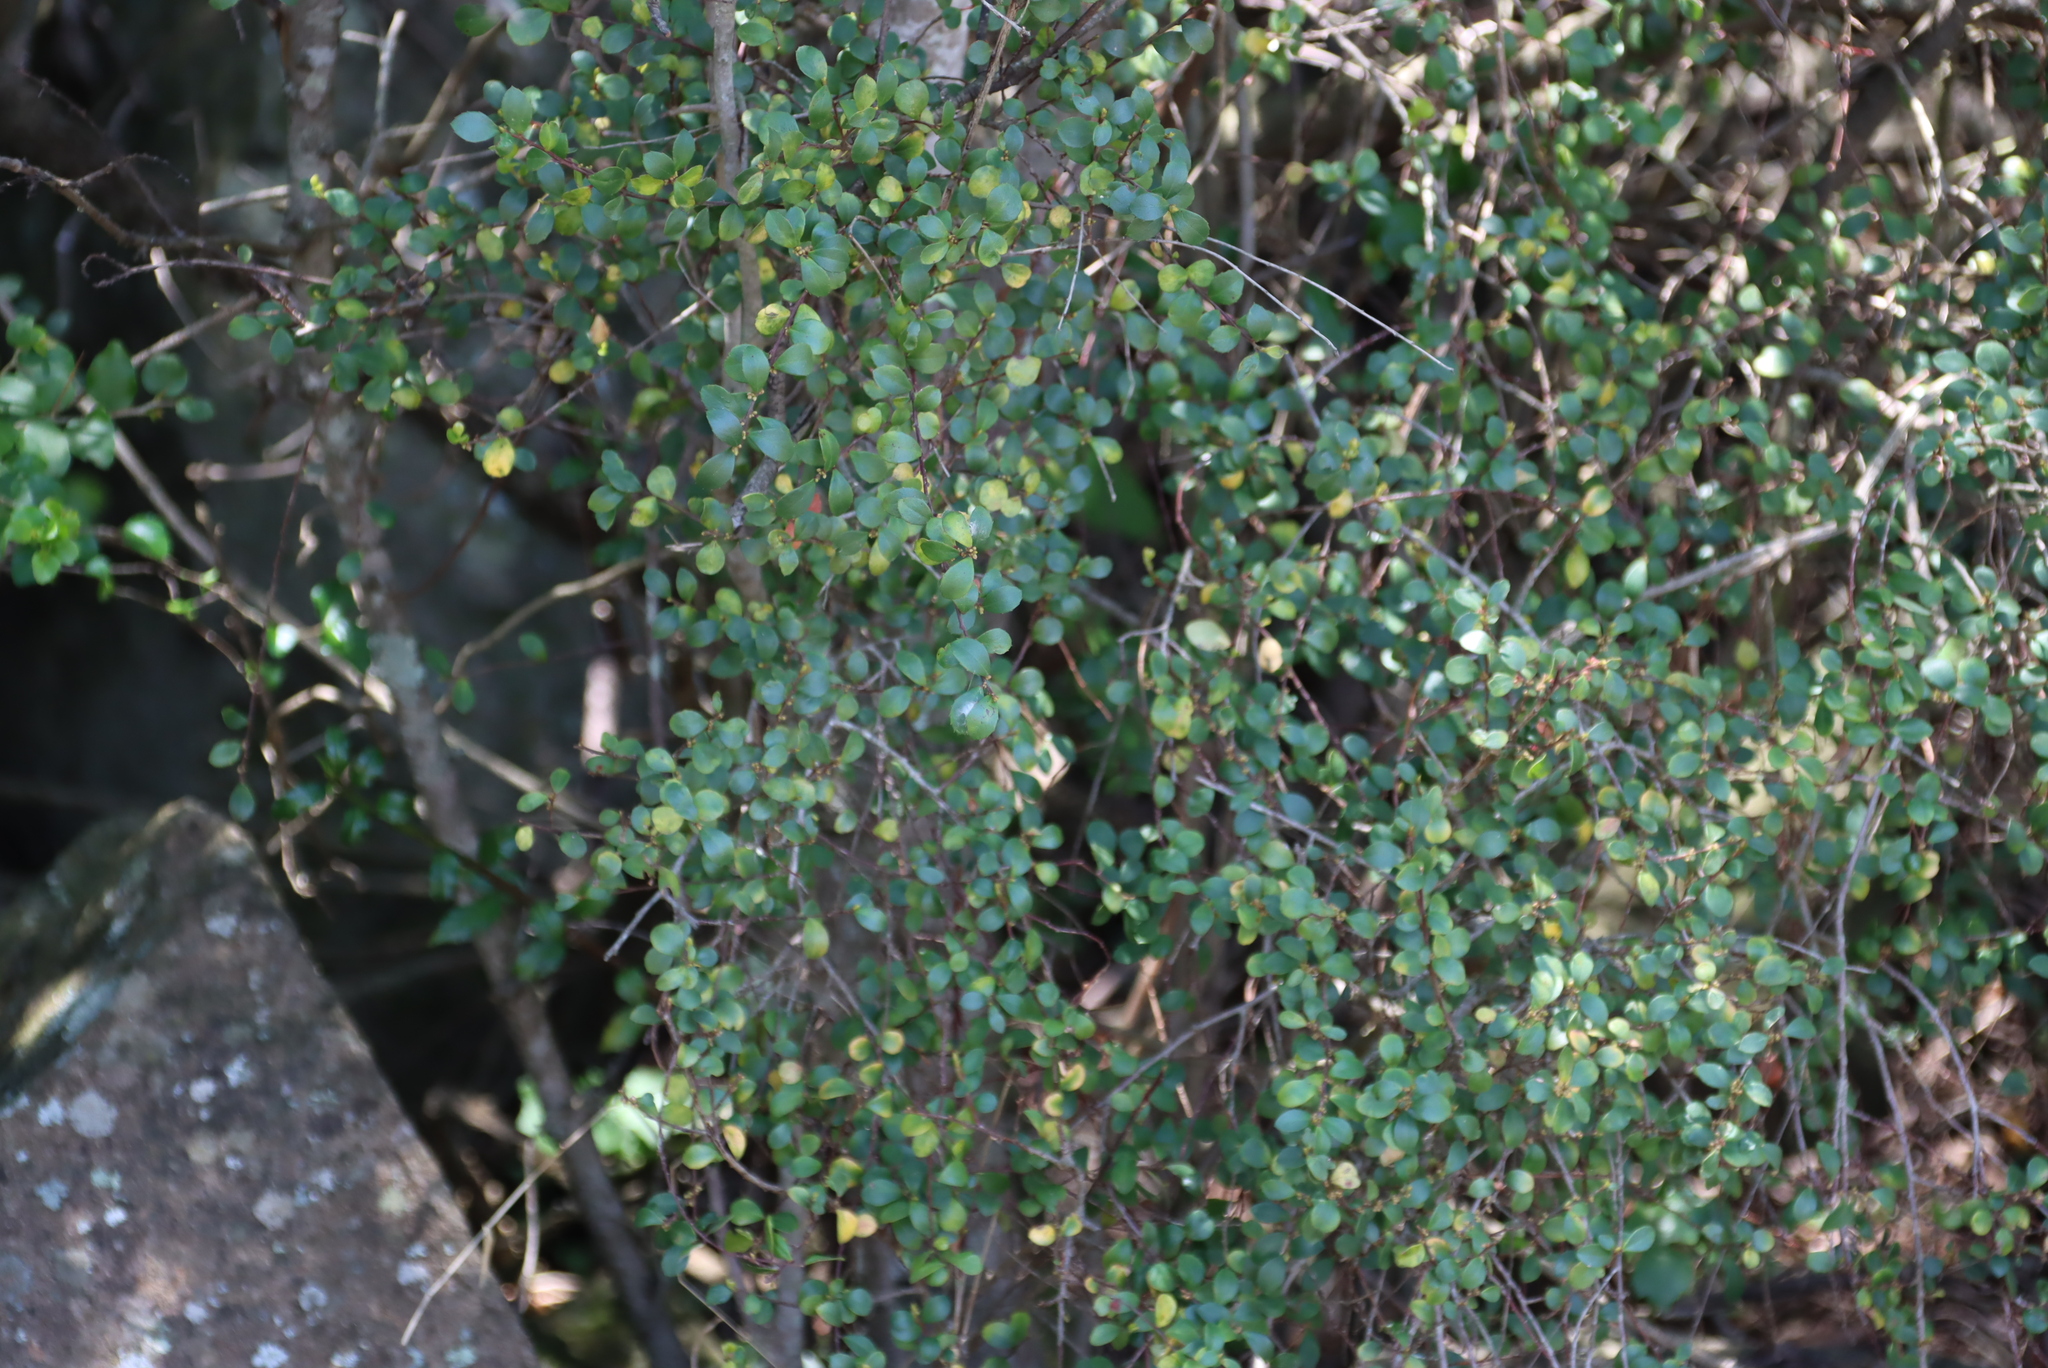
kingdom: Plantae
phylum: Tracheophyta
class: Magnoliopsida
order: Ericales
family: Primulaceae
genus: Myrsine
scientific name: Myrsine africana
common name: African-boxwood
